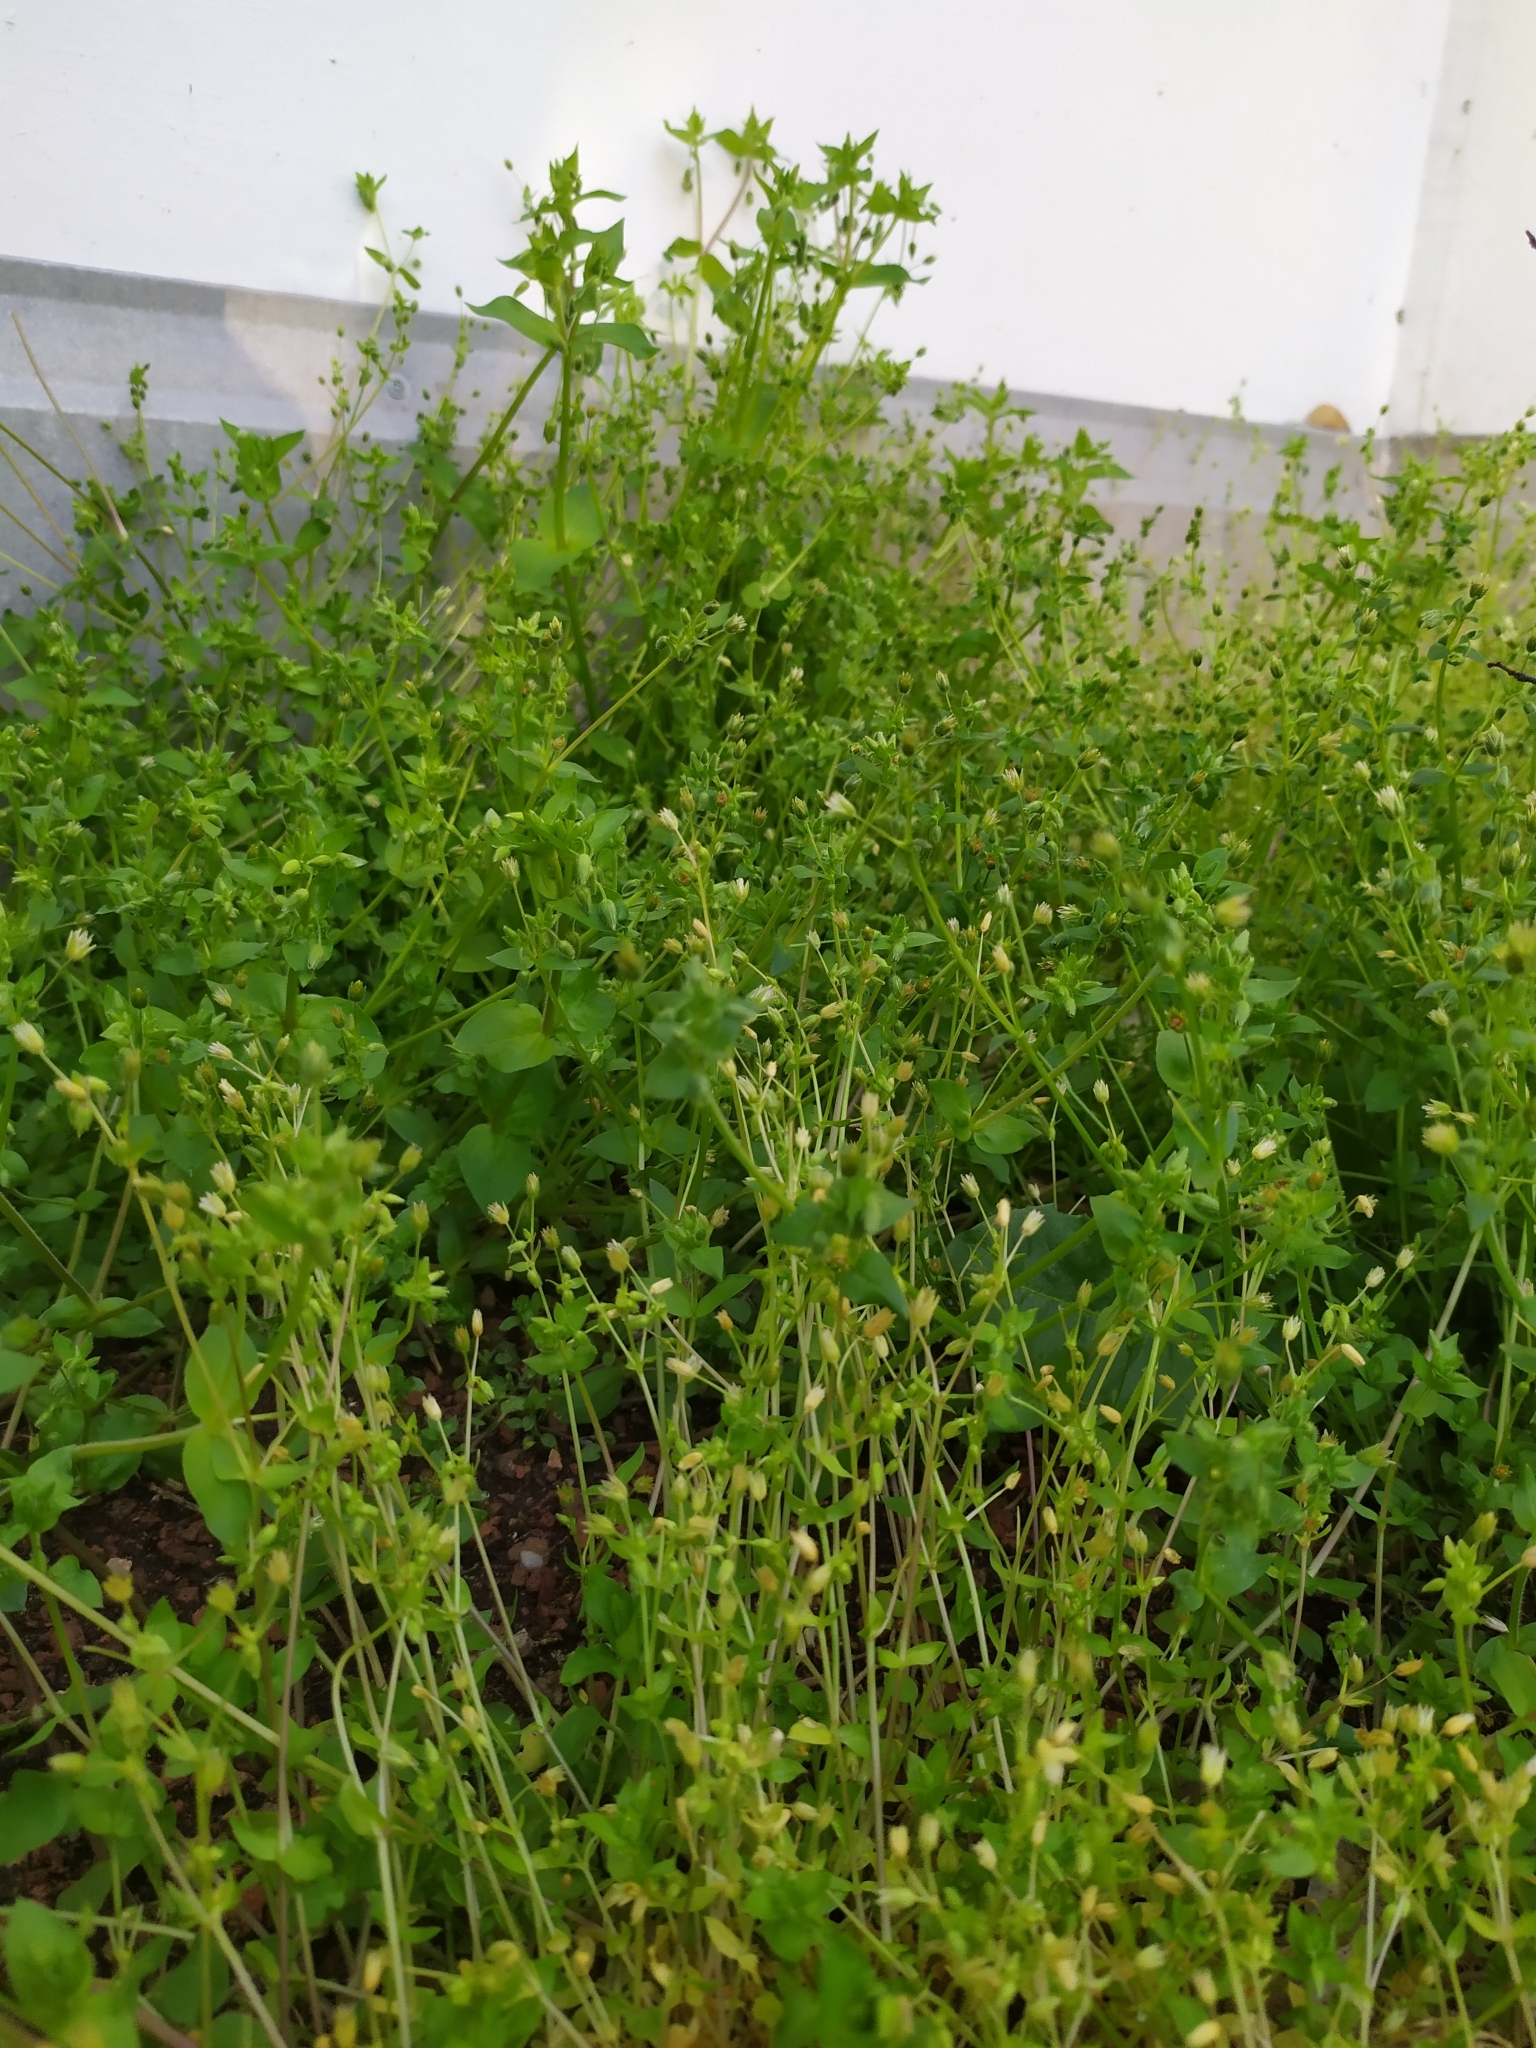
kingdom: Plantae
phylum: Tracheophyta
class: Magnoliopsida
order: Caryophyllales
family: Caryophyllaceae
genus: Stellaria
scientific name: Stellaria apetala
